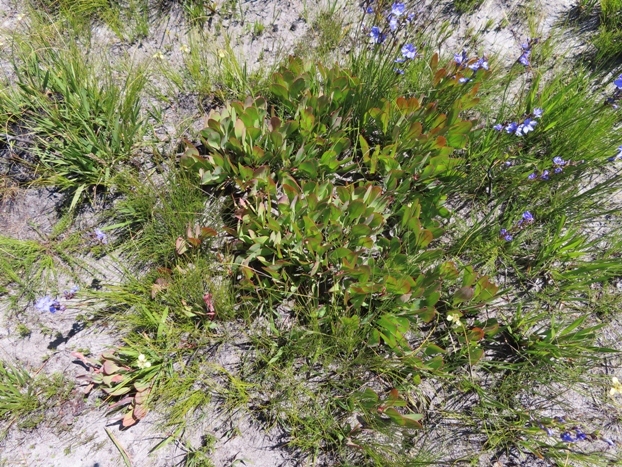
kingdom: Plantae
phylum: Tracheophyta
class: Magnoliopsida
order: Proteales
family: Proteaceae
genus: Protea
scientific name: Protea acaulos
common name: Common ground sugarbush
